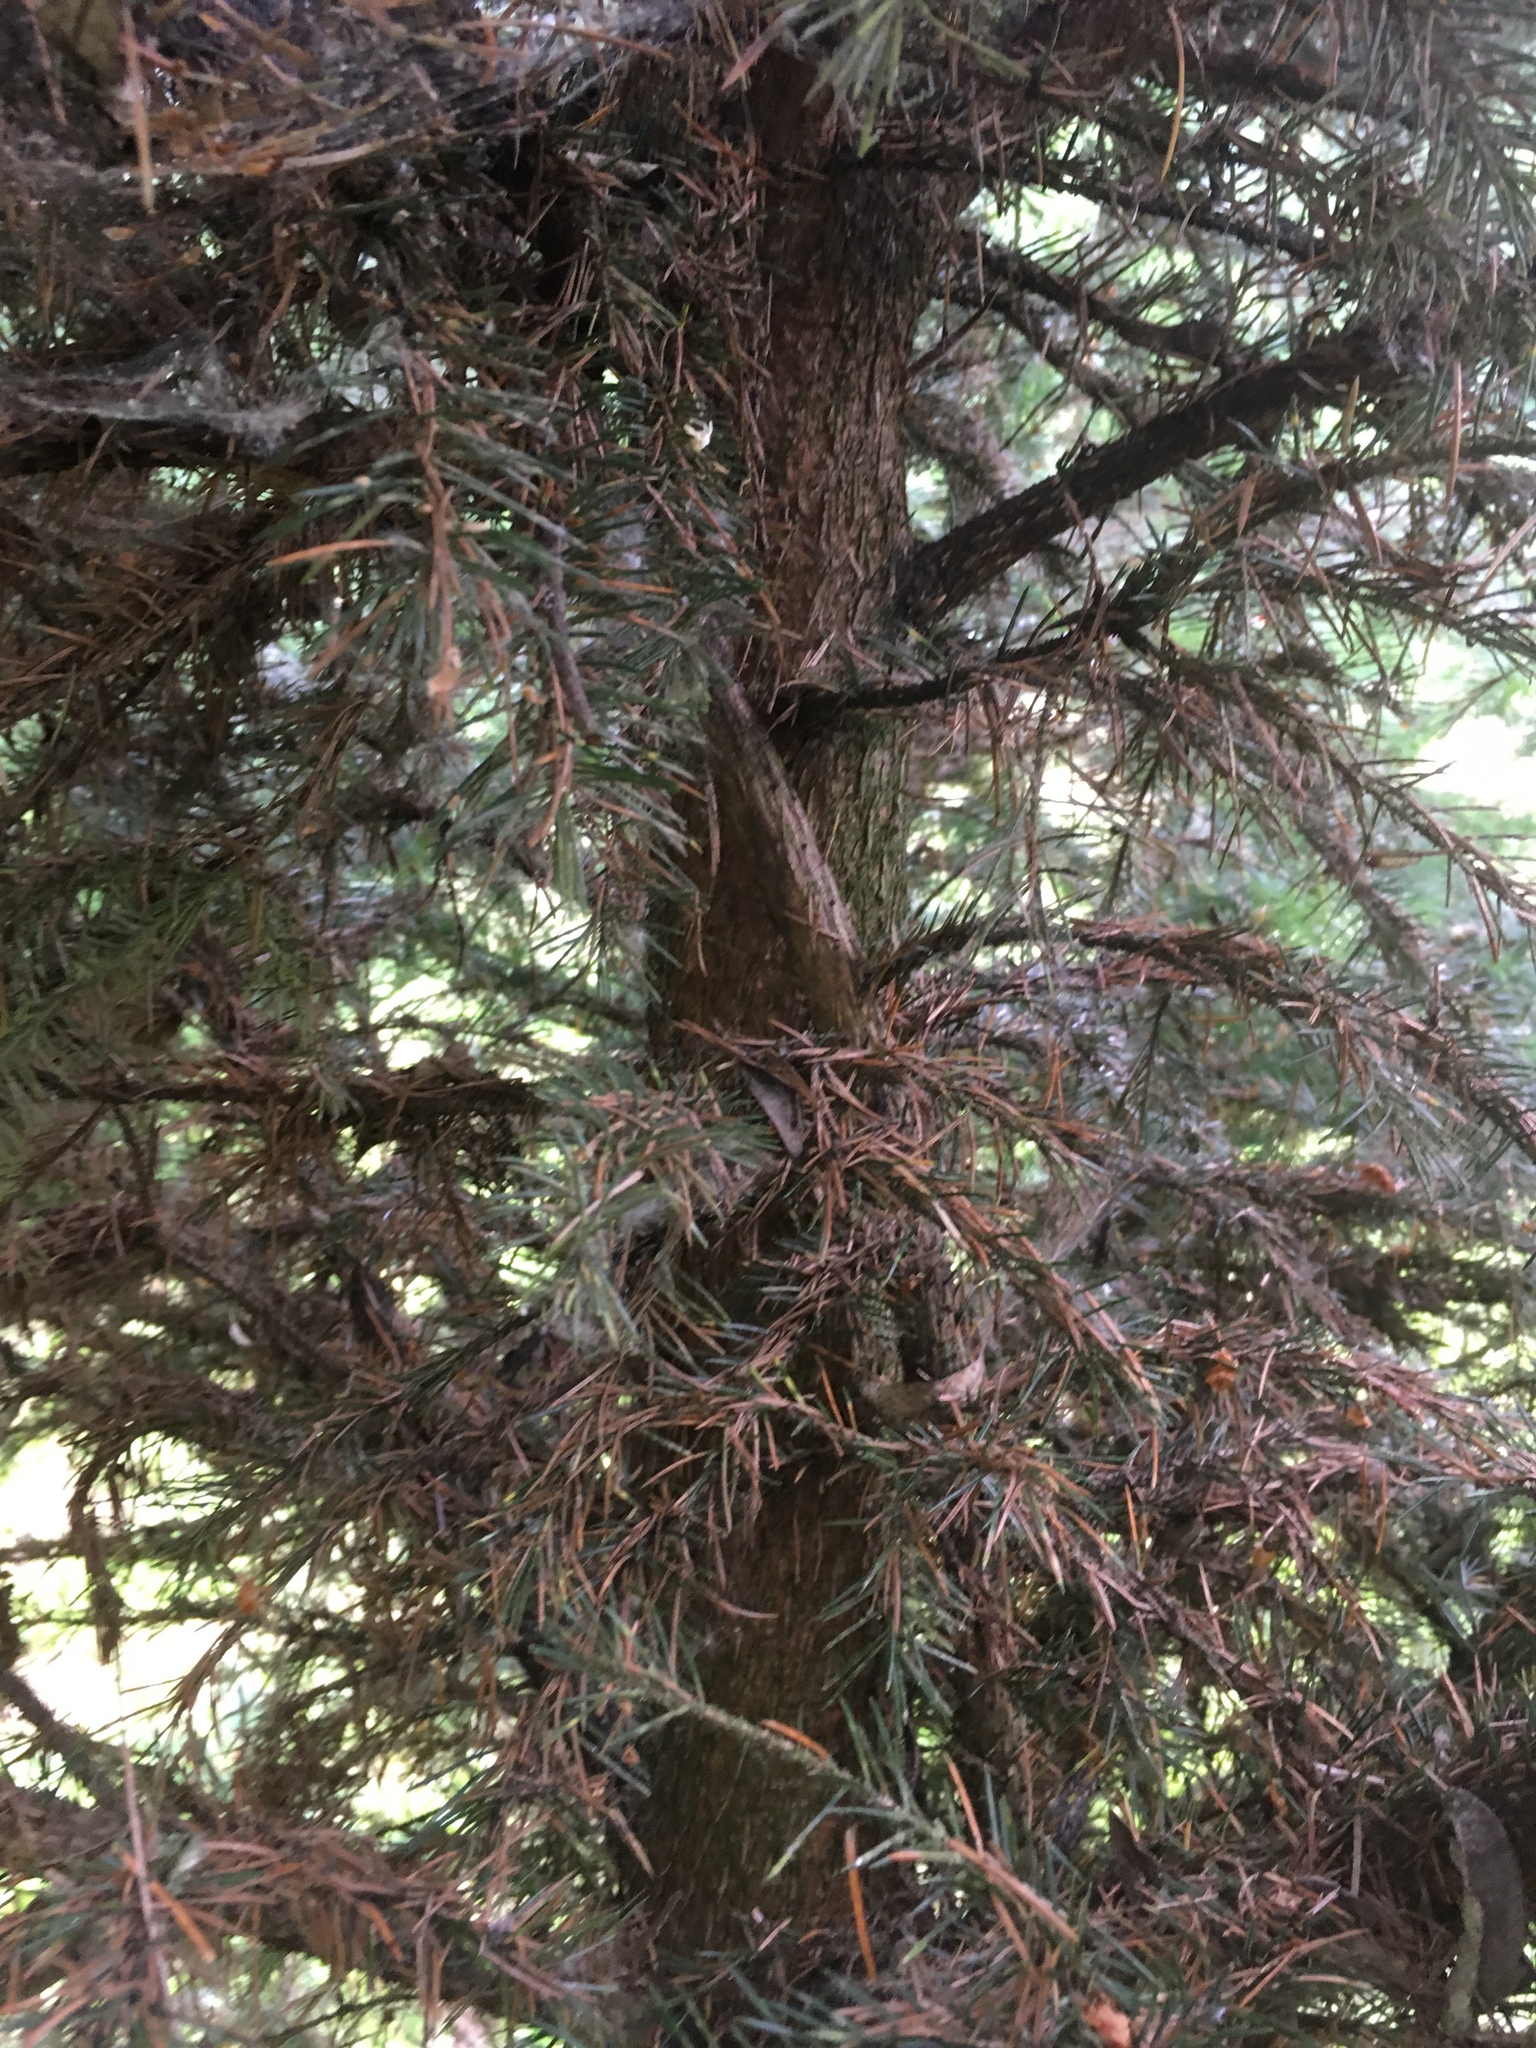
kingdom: Plantae
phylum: Tracheophyta
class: Pinopsida
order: Pinales
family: Pinaceae
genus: Picea
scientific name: Picea sitchensis
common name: Sitka spruce
